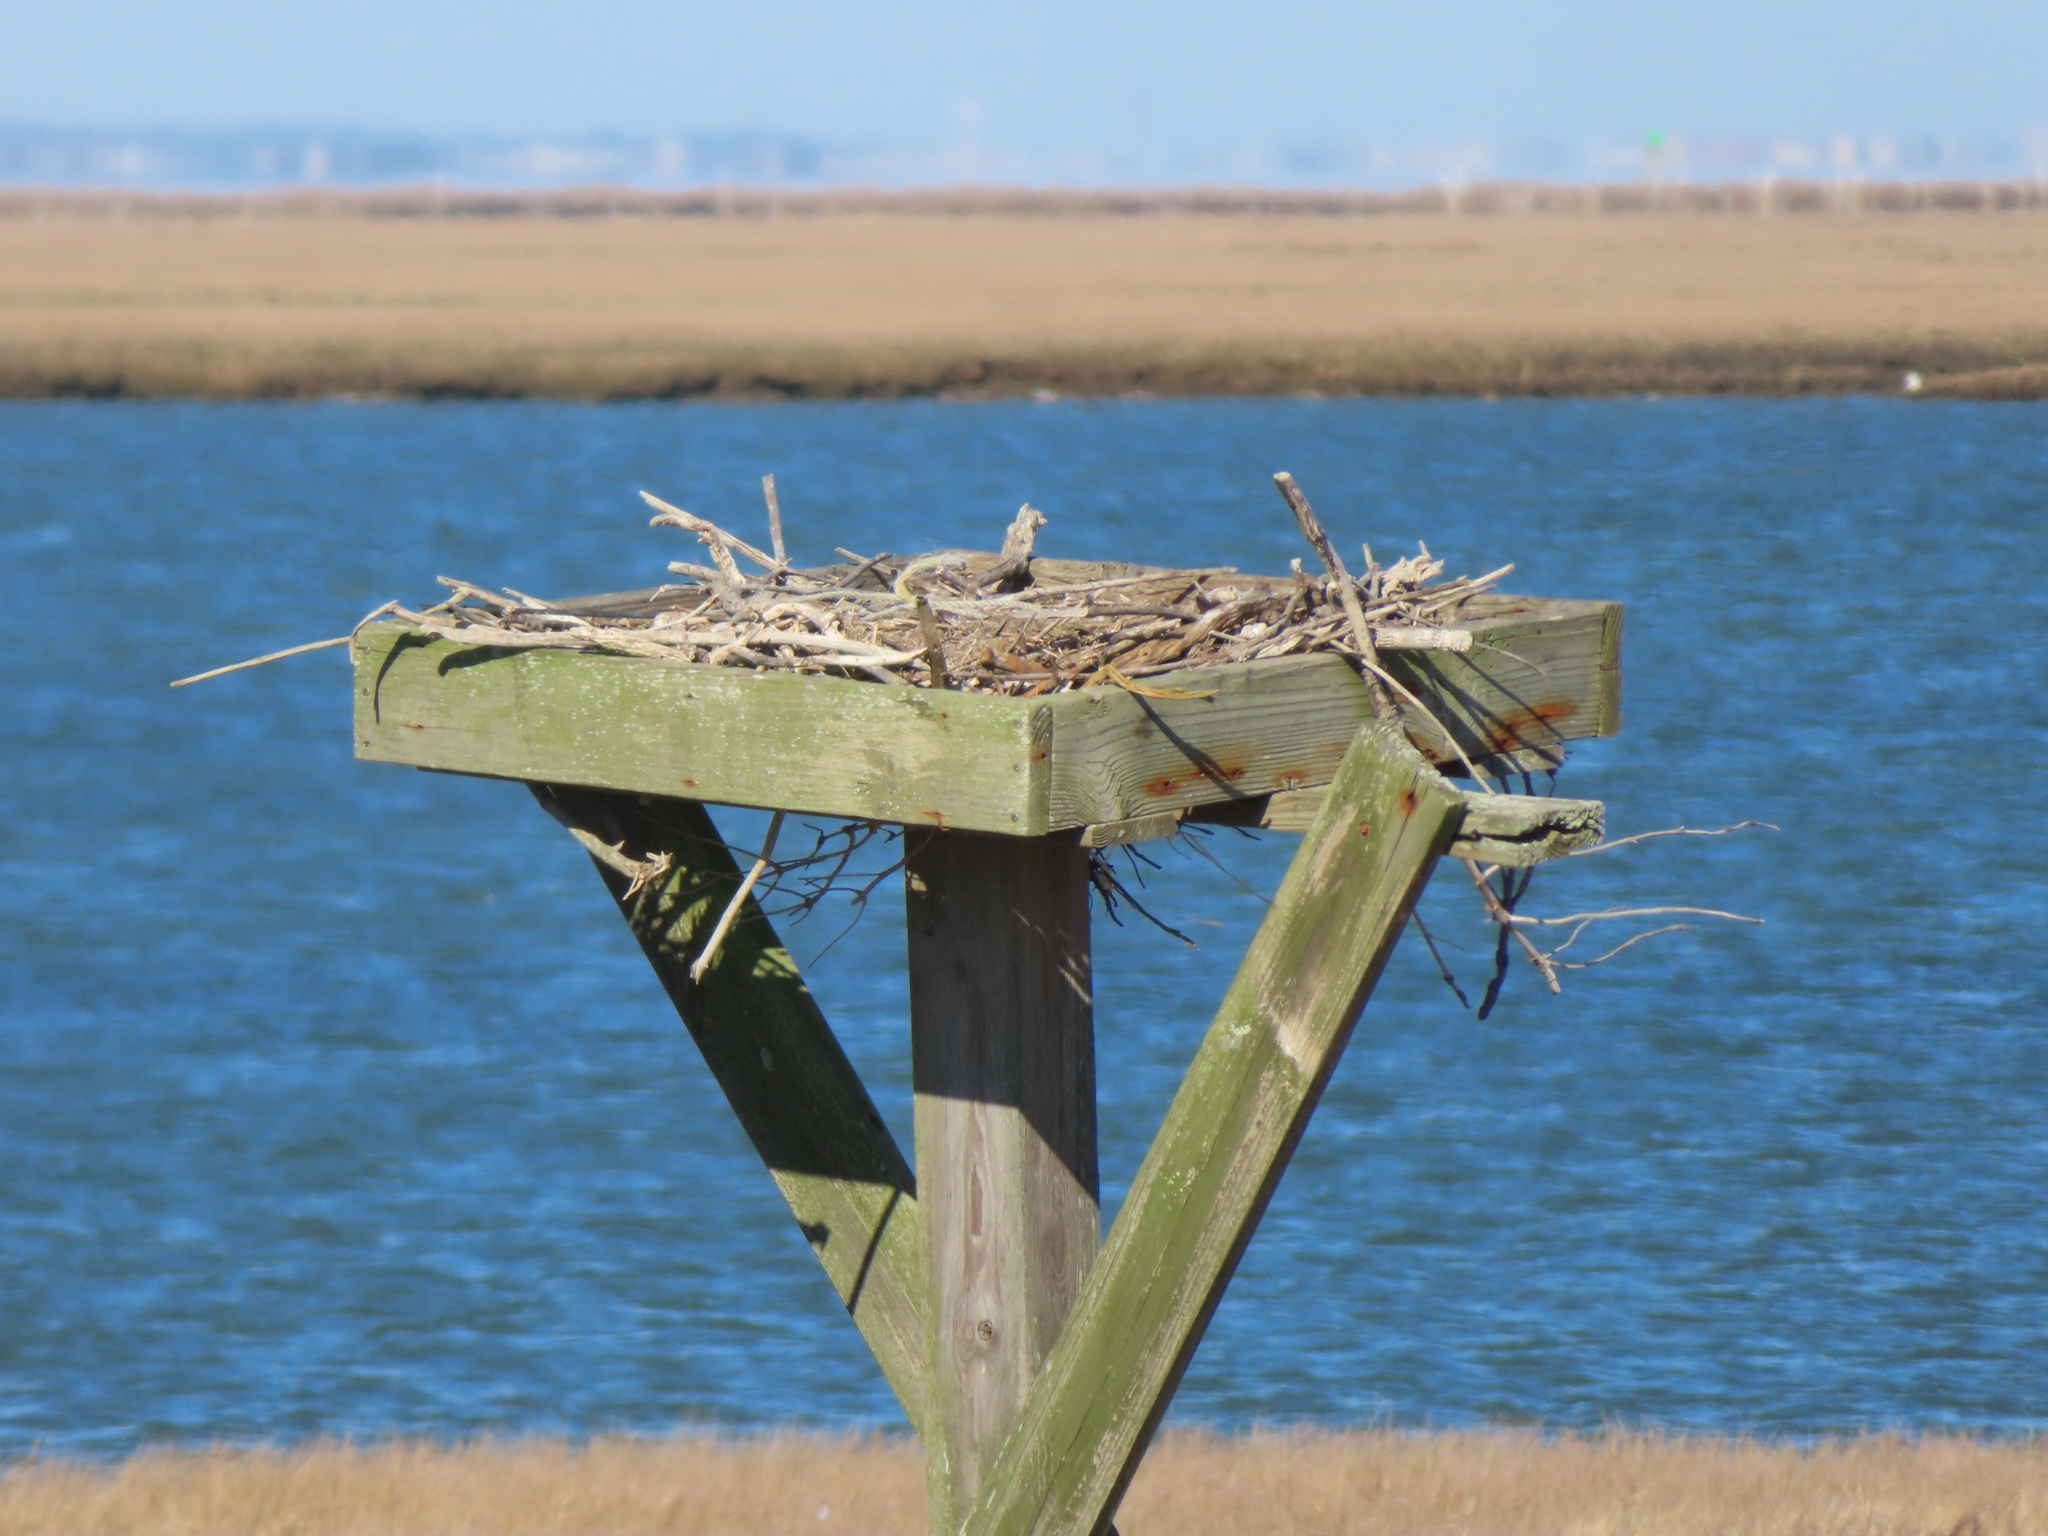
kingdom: Animalia
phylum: Chordata
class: Aves
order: Accipitriformes
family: Pandionidae
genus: Pandion
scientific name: Pandion haliaetus
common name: Osprey
